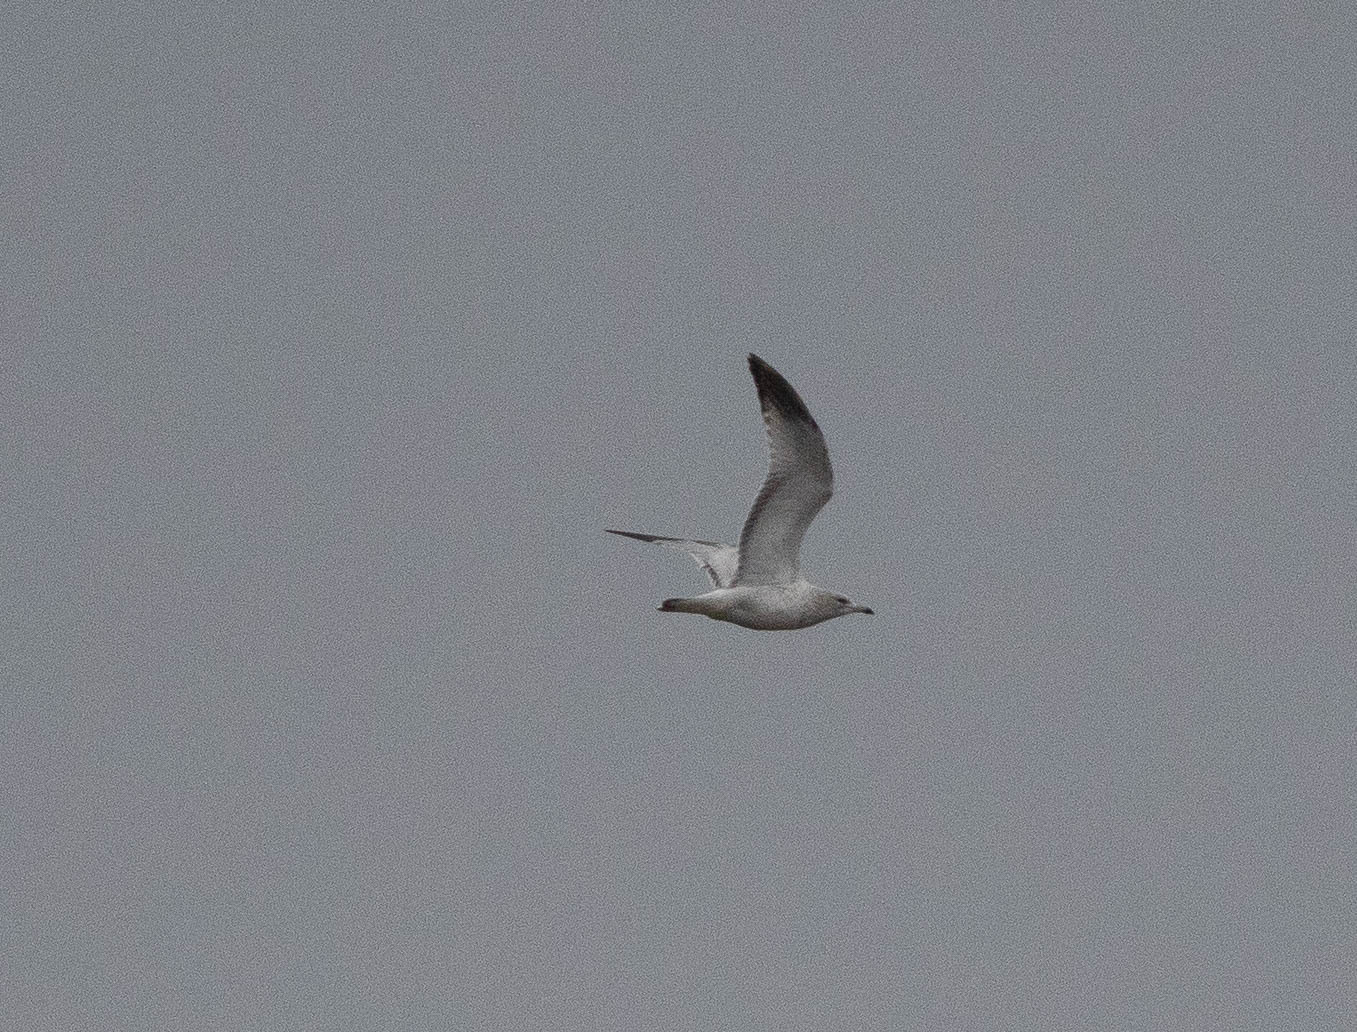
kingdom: Animalia
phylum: Chordata
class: Aves
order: Charadriiformes
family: Laridae
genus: Larus
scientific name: Larus delawarensis
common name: Ring-billed gull
